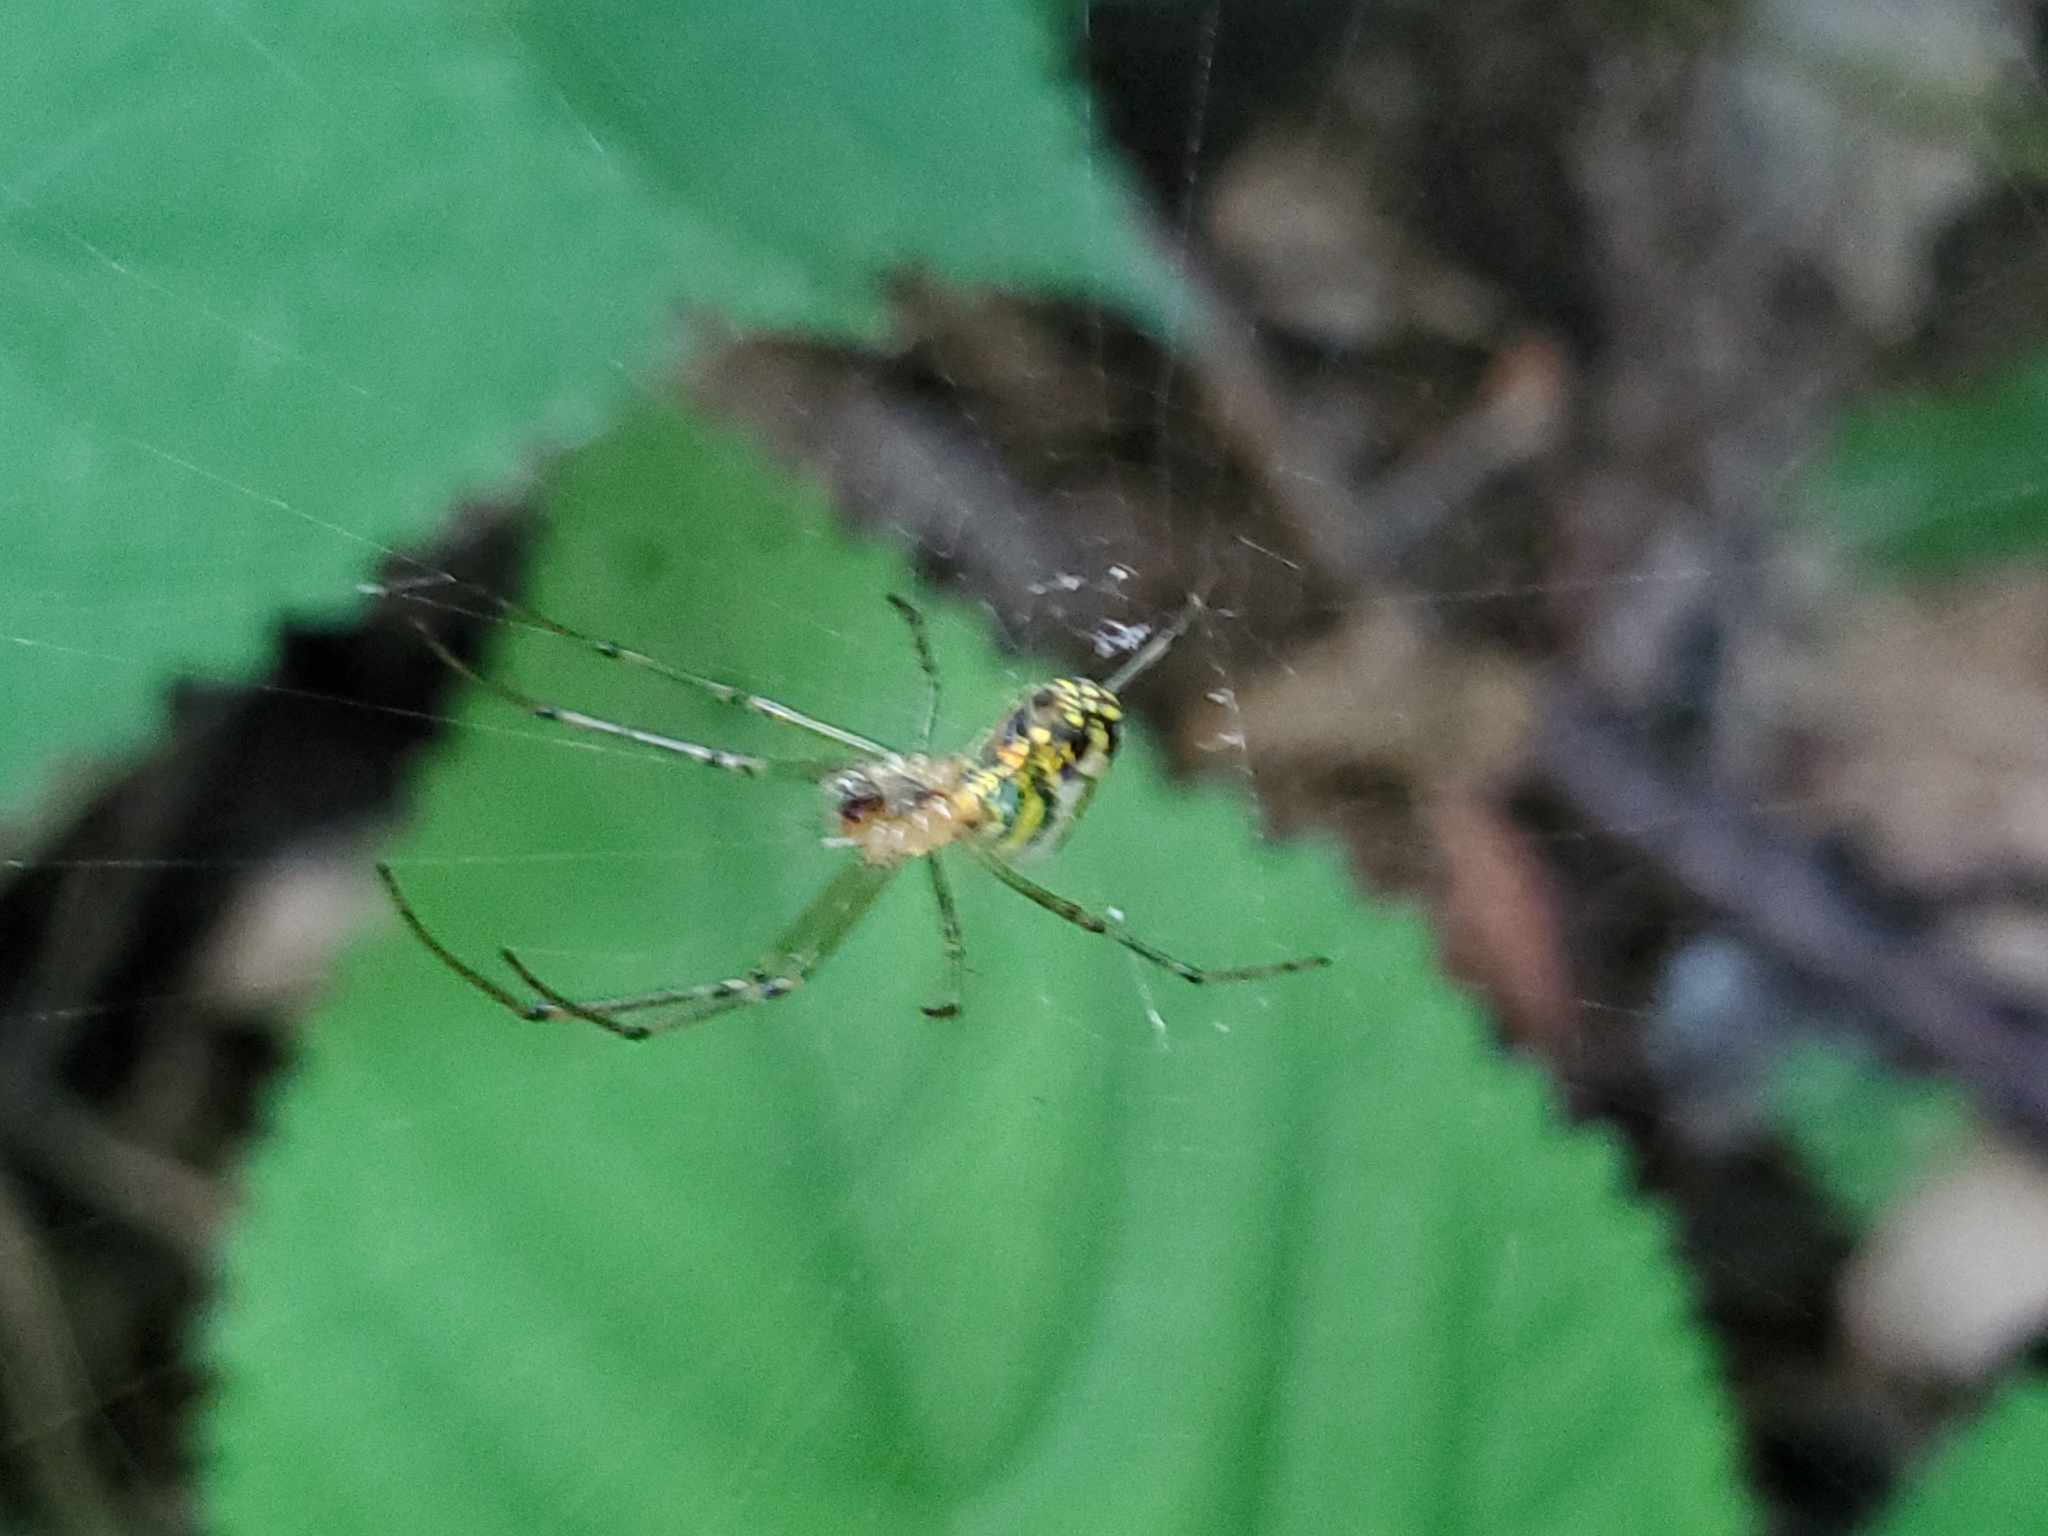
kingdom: Animalia
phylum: Arthropoda
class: Arachnida
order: Araneae
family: Tetragnathidae
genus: Leucauge
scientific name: Leucauge venusta
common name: Longjawed orb weavers
